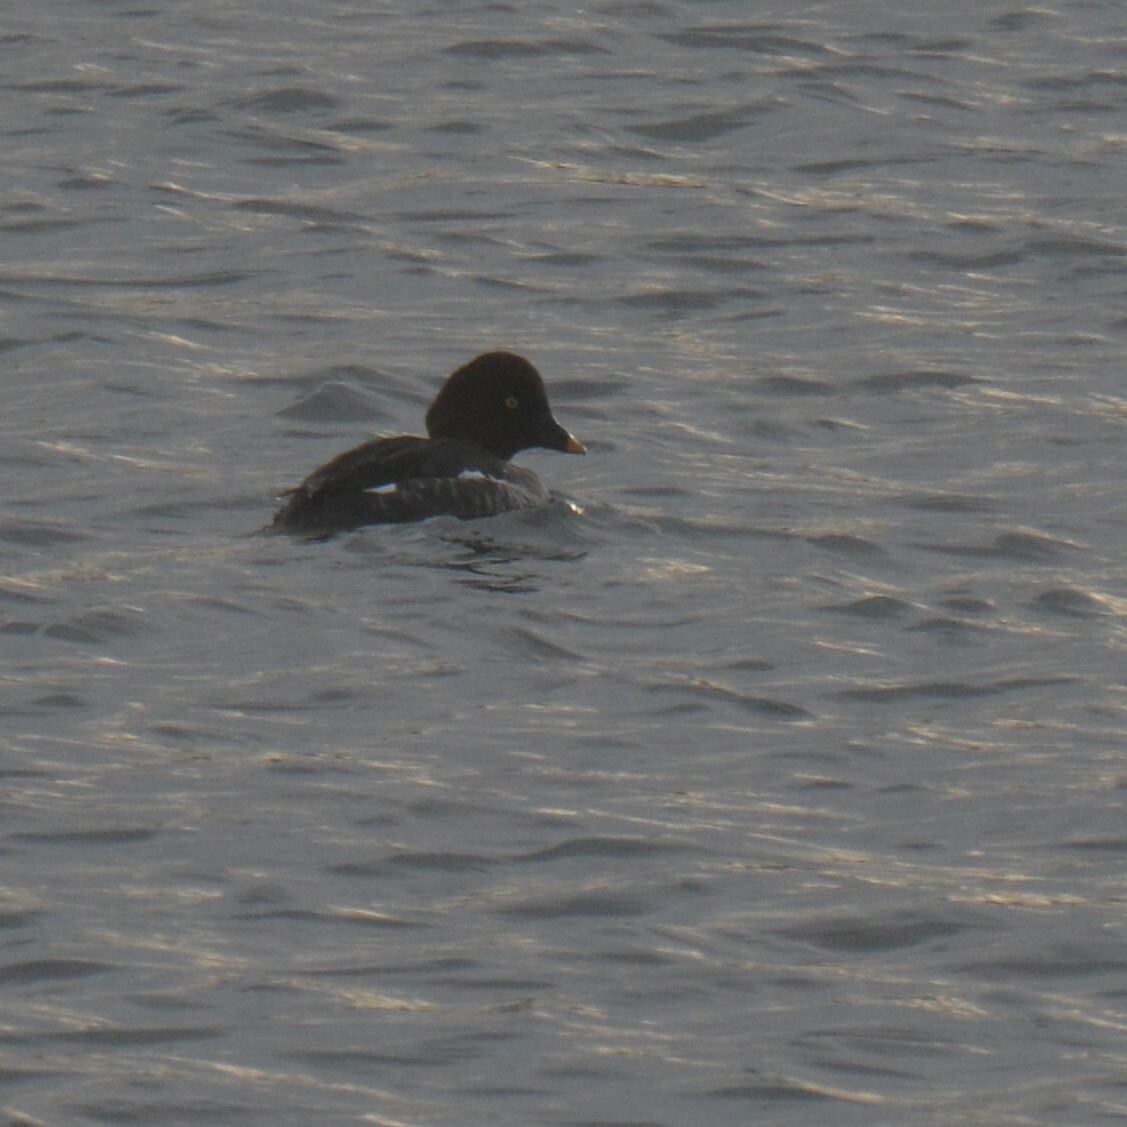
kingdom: Animalia
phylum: Chordata
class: Aves
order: Anseriformes
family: Anatidae
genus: Bucephala
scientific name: Bucephala clangula
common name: Common goldeneye
